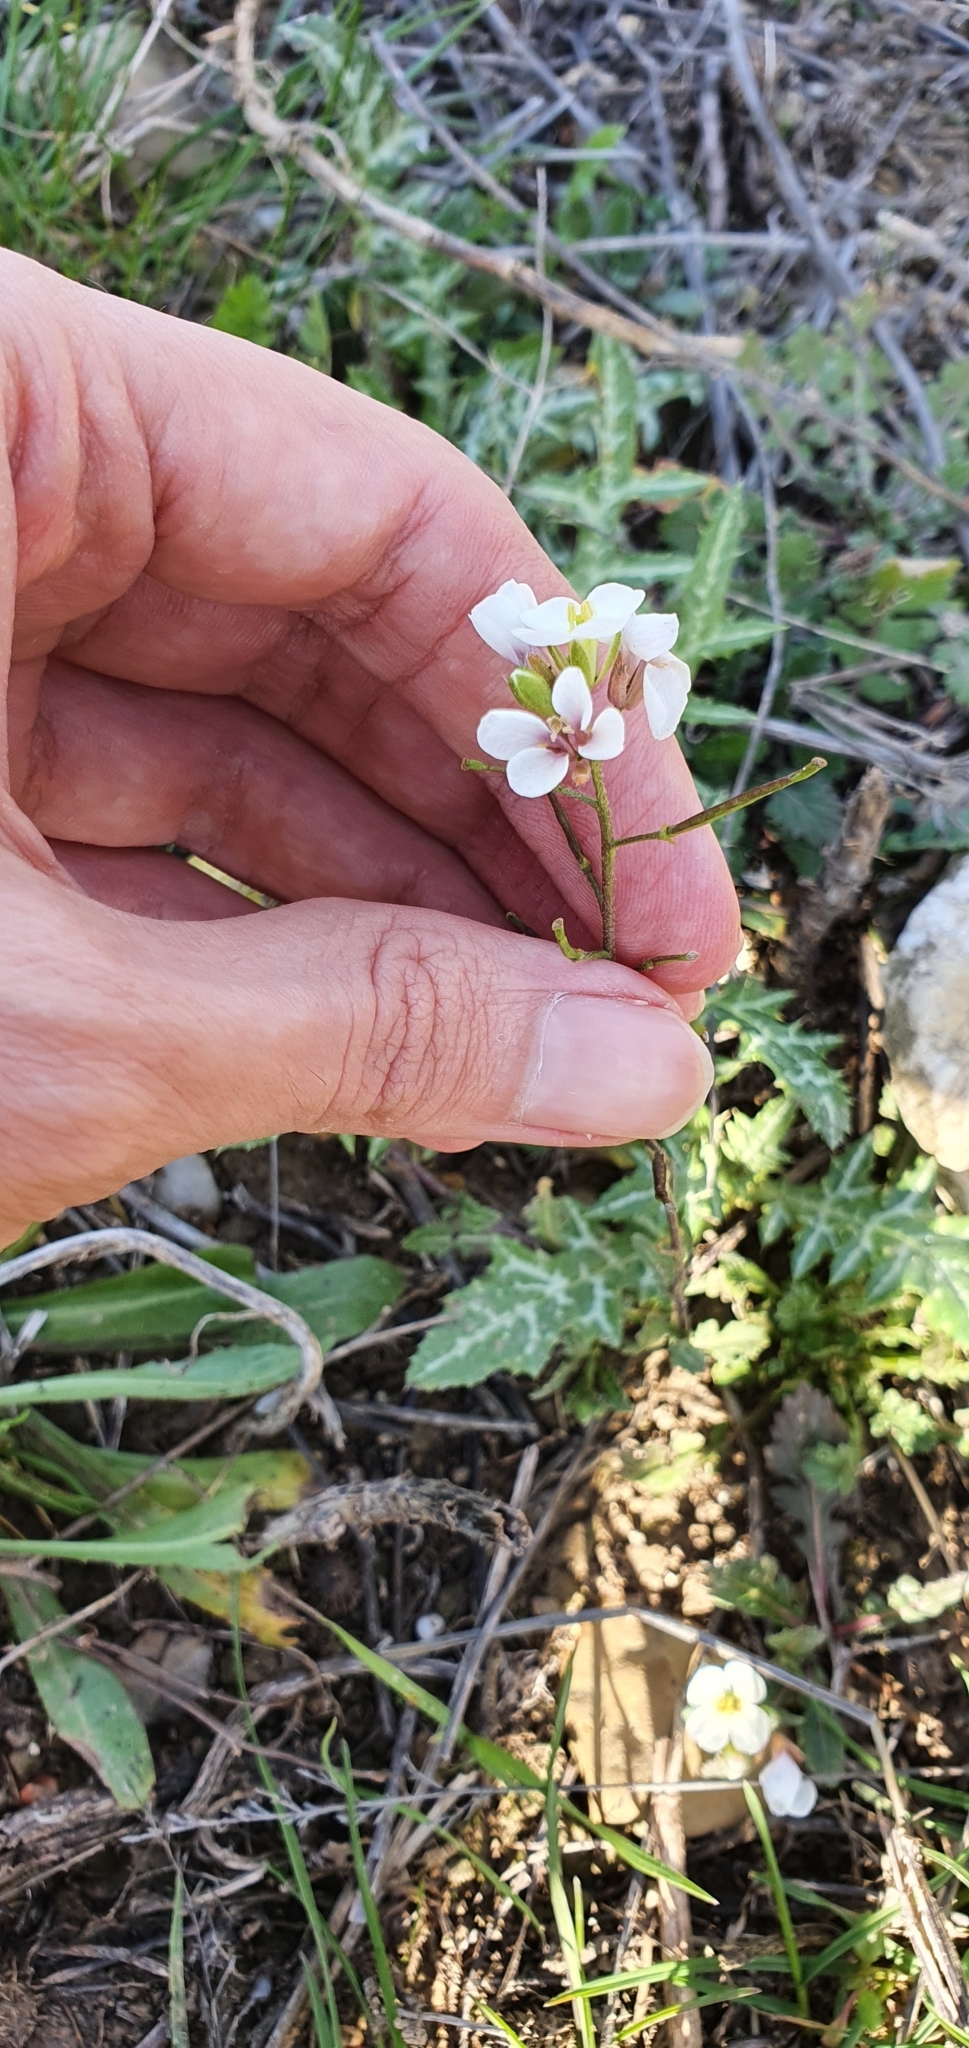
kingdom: Plantae
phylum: Tracheophyta
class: Magnoliopsida
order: Brassicales
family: Brassicaceae
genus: Diplotaxis
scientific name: Diplotaxis erucoides
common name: White rocket
